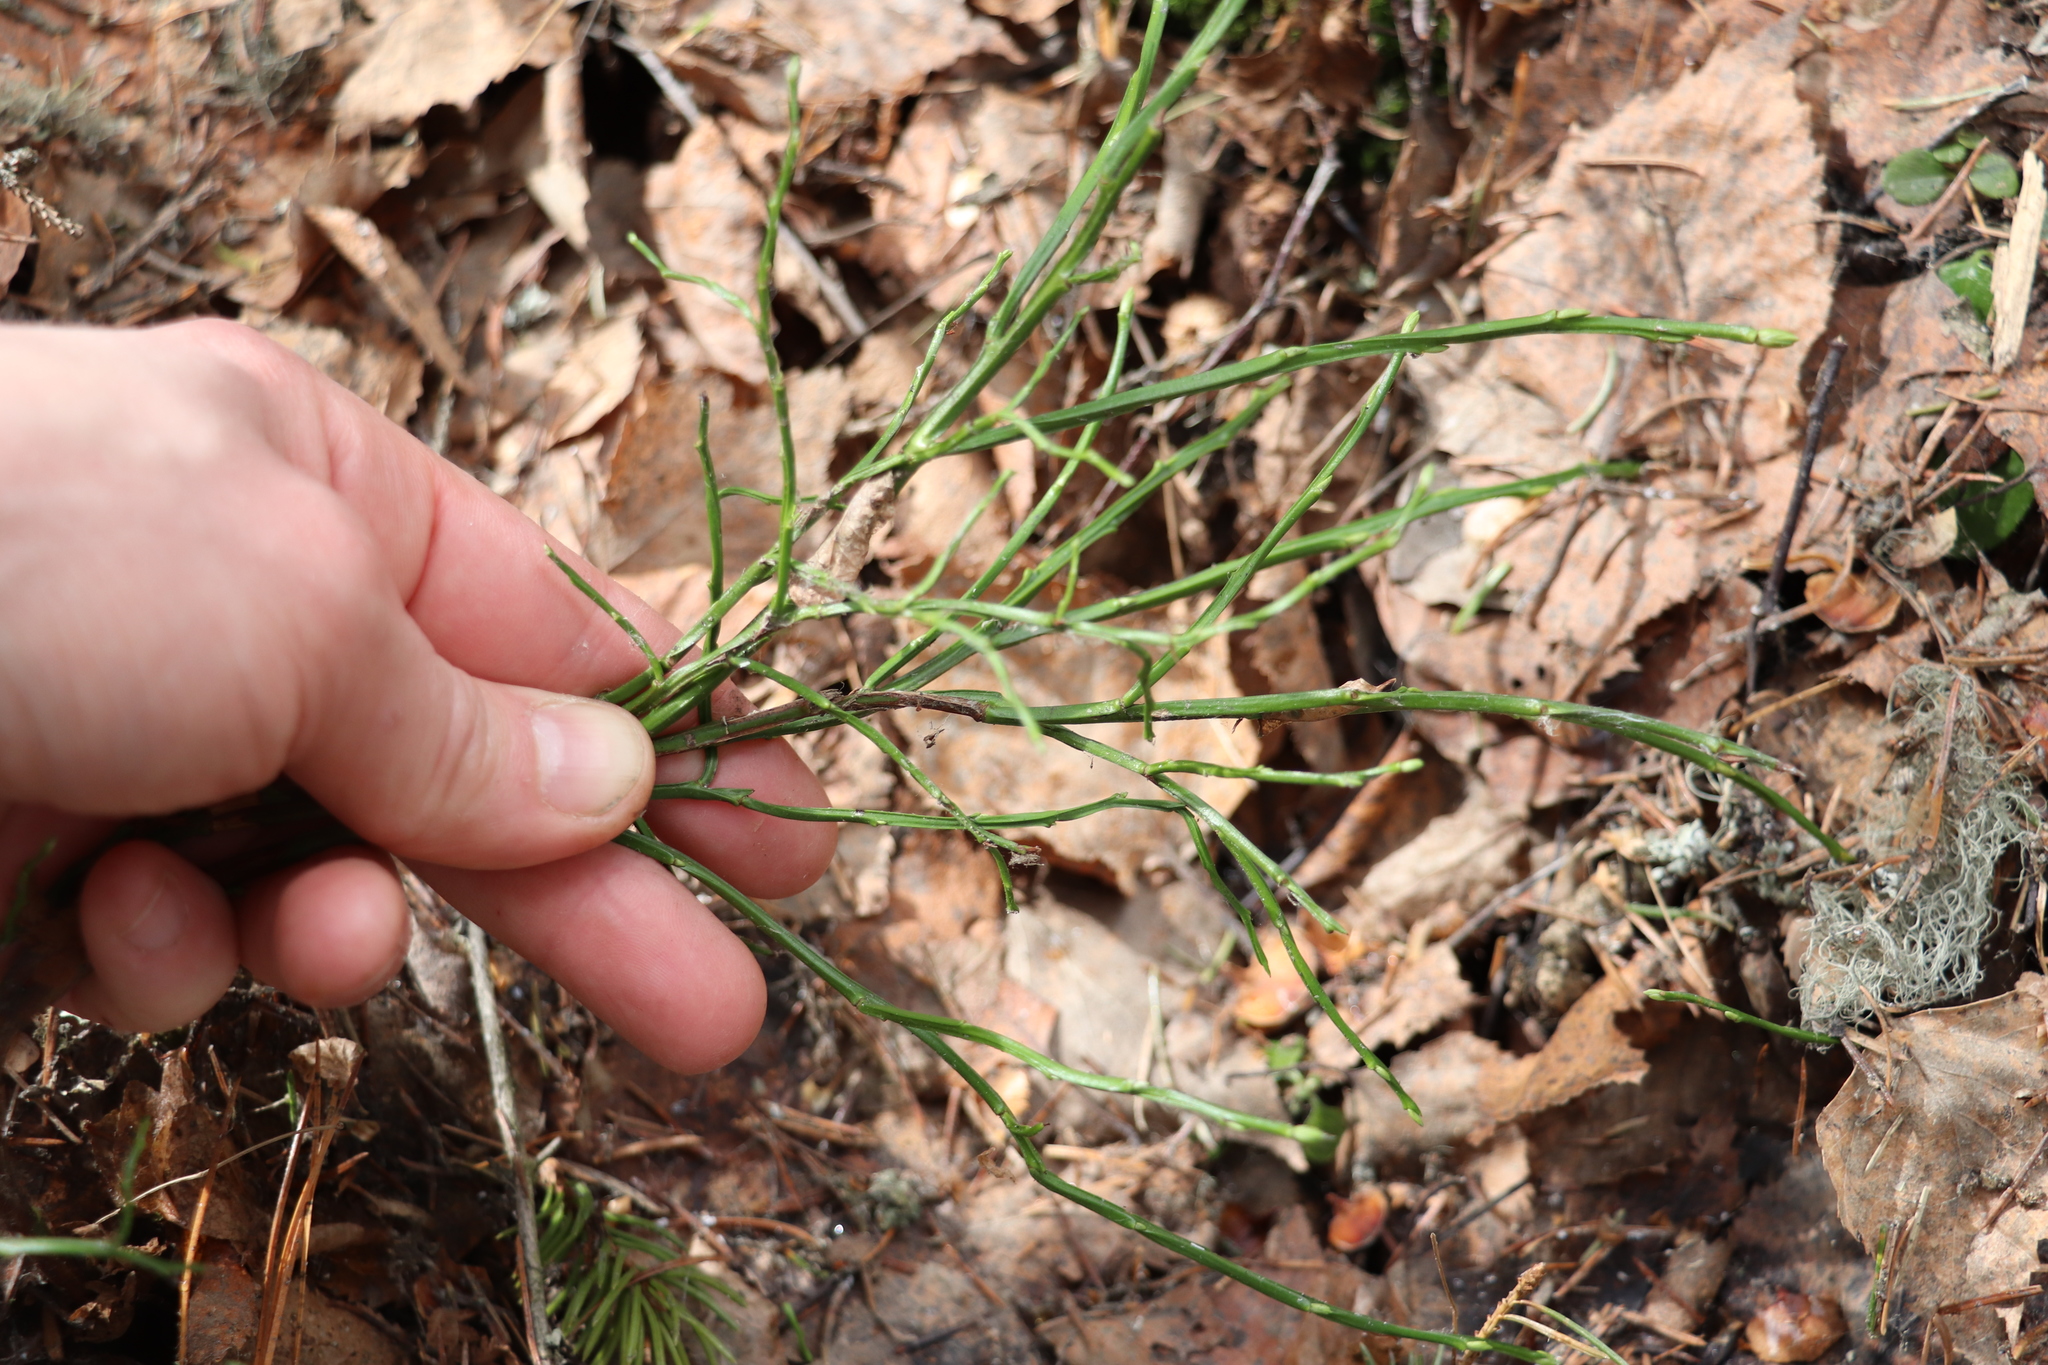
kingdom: Plantae
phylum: Tracheophyta
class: Magnoliopsida
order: Ericales
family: Ericaceae
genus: Vaccinium
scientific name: Vaccinium myrtillus
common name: Bilberry
